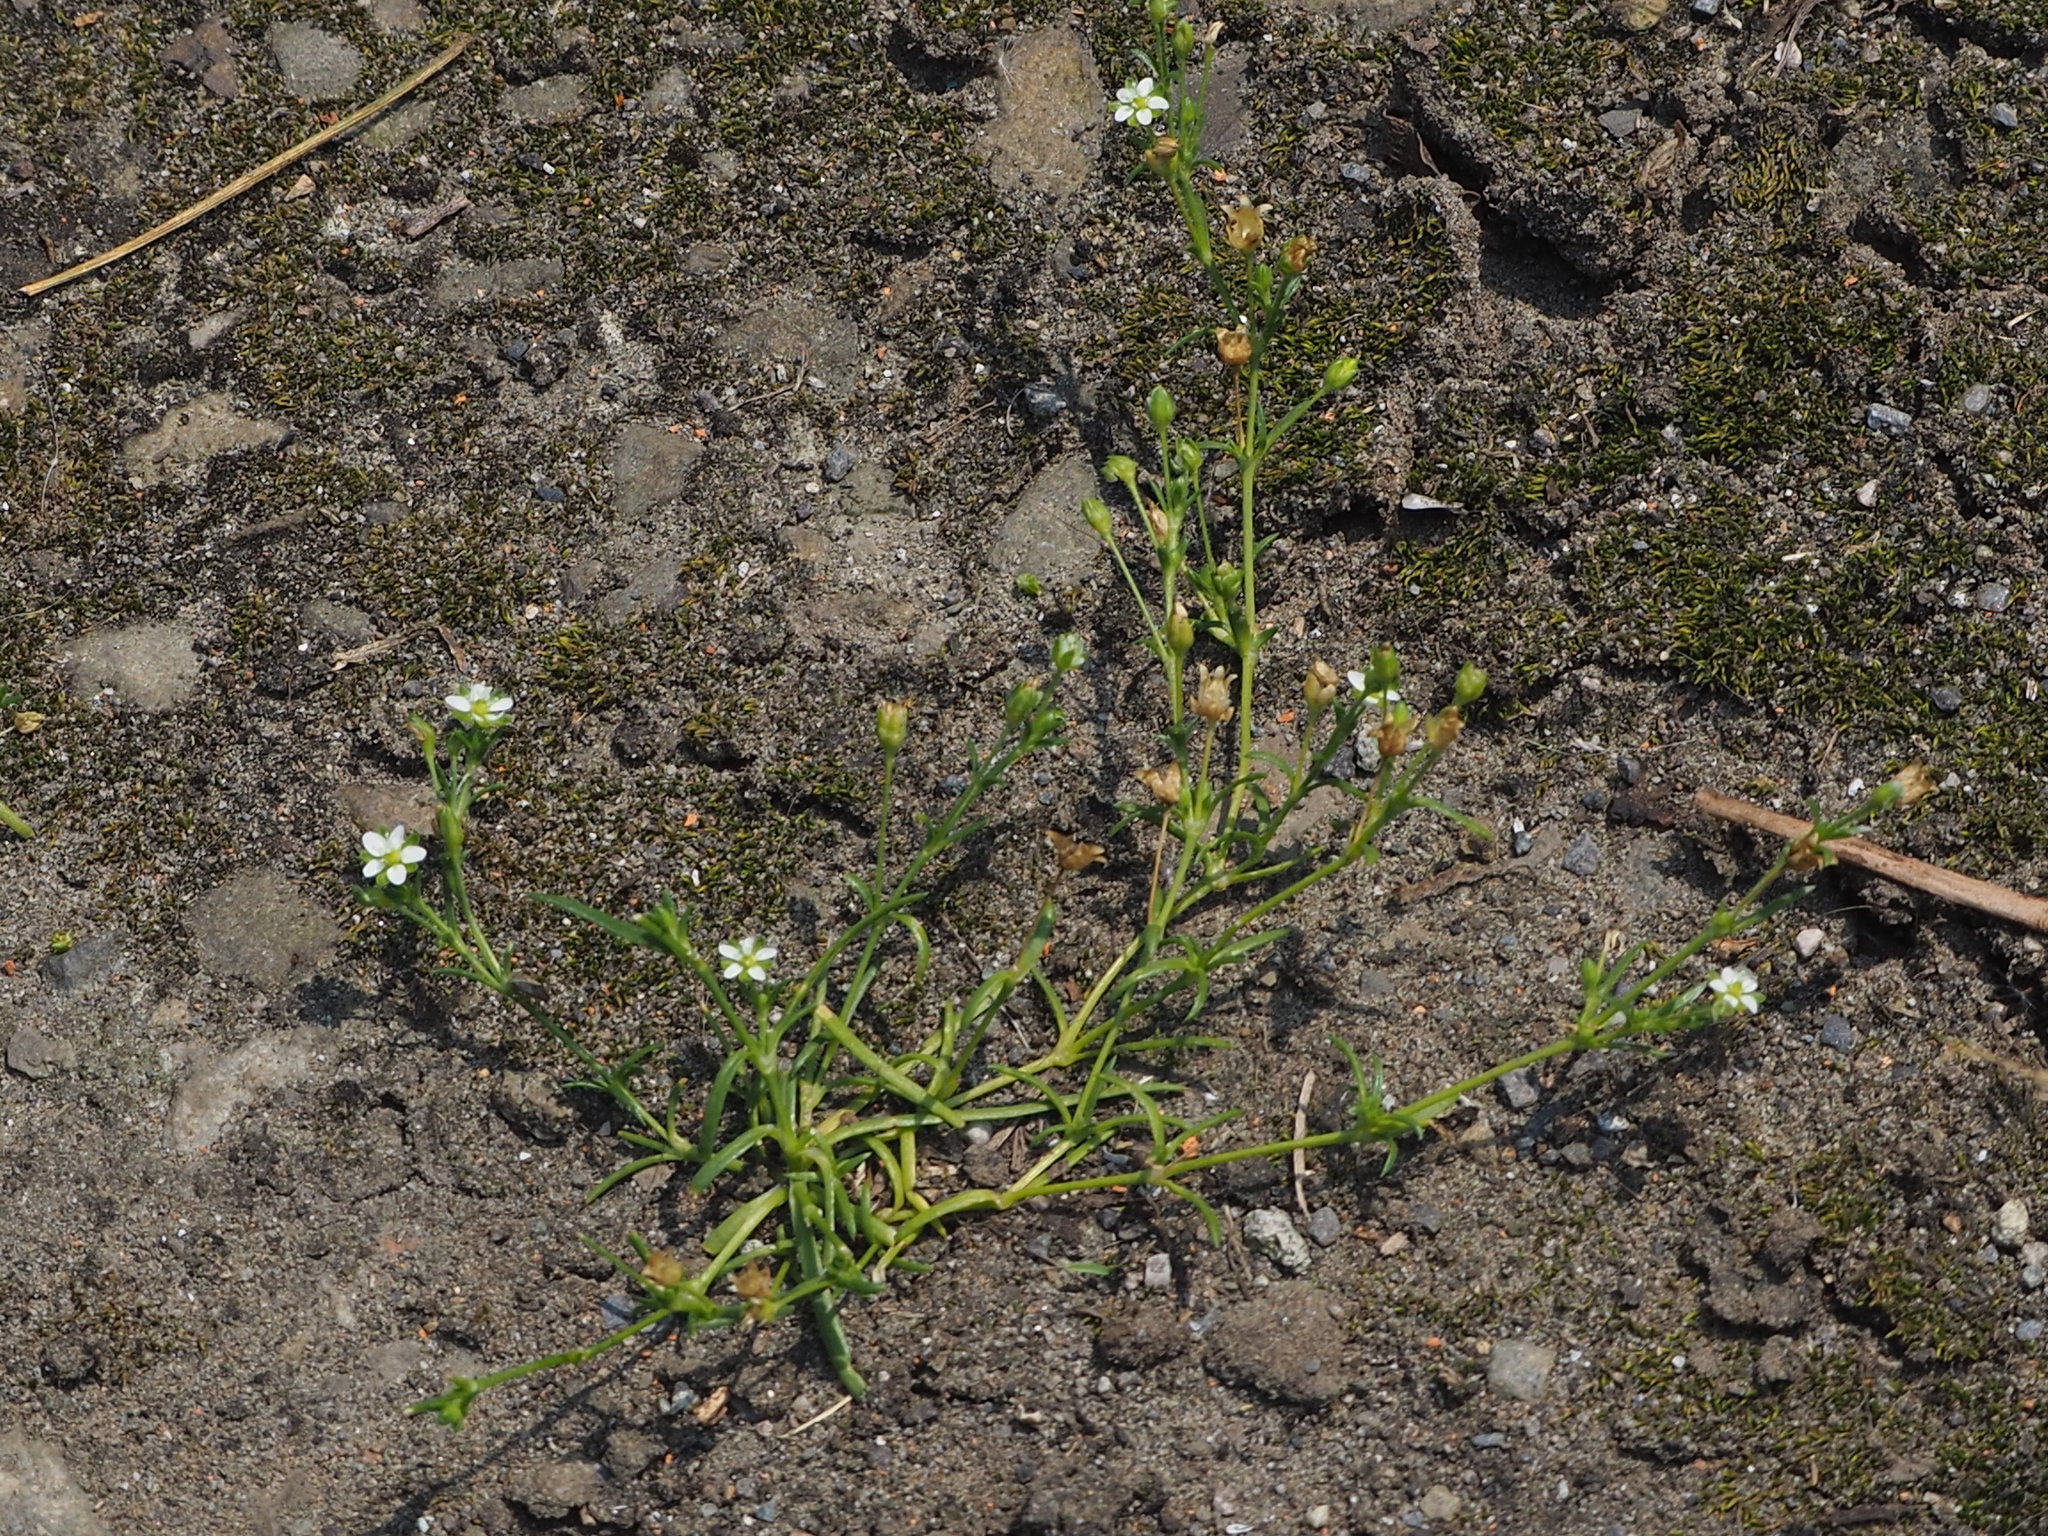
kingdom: Plantae
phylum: Tracheophyta
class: Magnoliopsida
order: Caryophyllales
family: Caryophyllaceae
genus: Sagina
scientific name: Sagina japonica
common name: Japanese pearlwort
